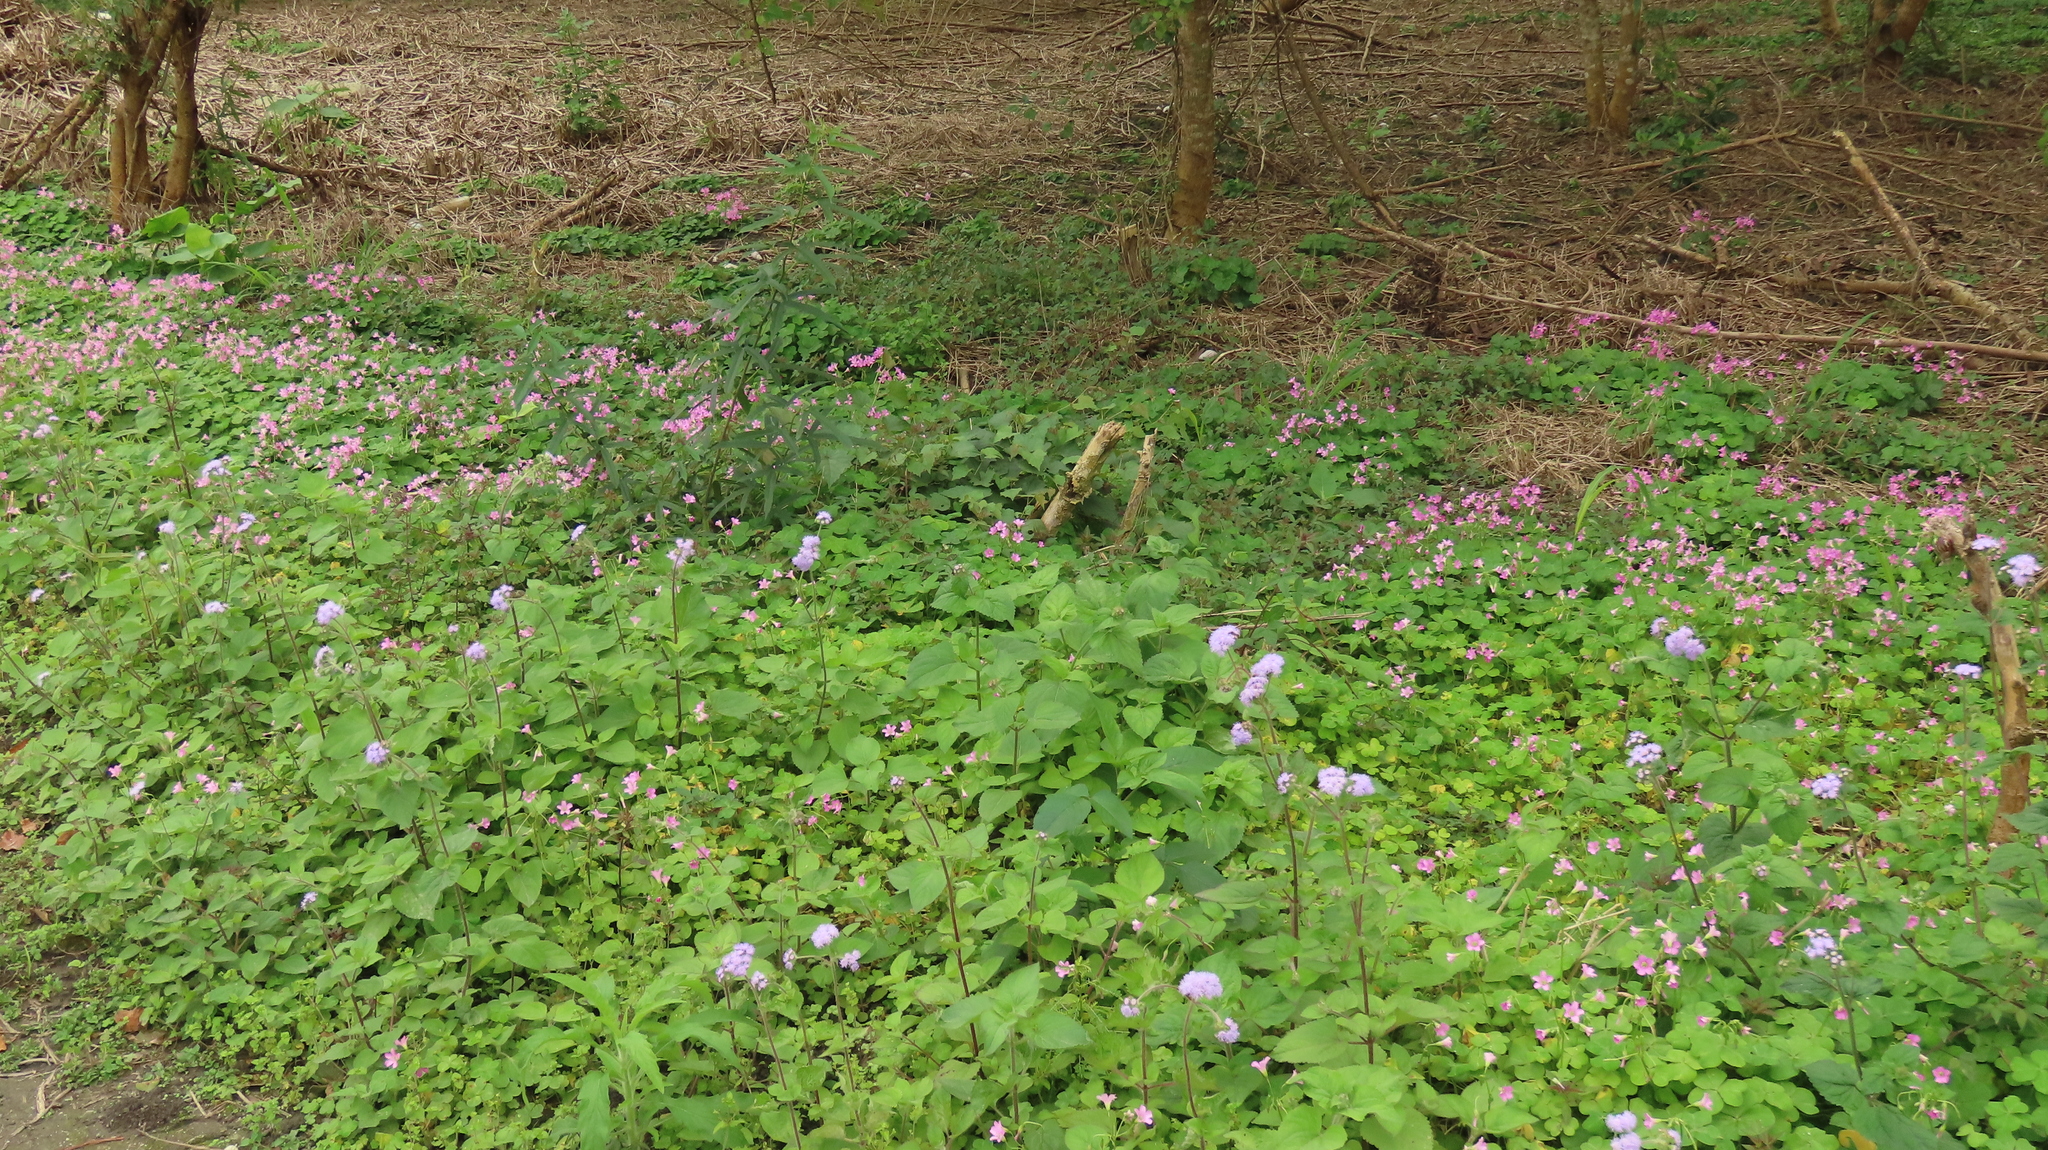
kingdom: Plantae
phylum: Tracheophyta
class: Magnoliopsida
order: Oxalidales
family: Oxalidaceae
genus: Oxalis
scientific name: Oxalis debilis
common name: Large-flowered pink-sorrel
